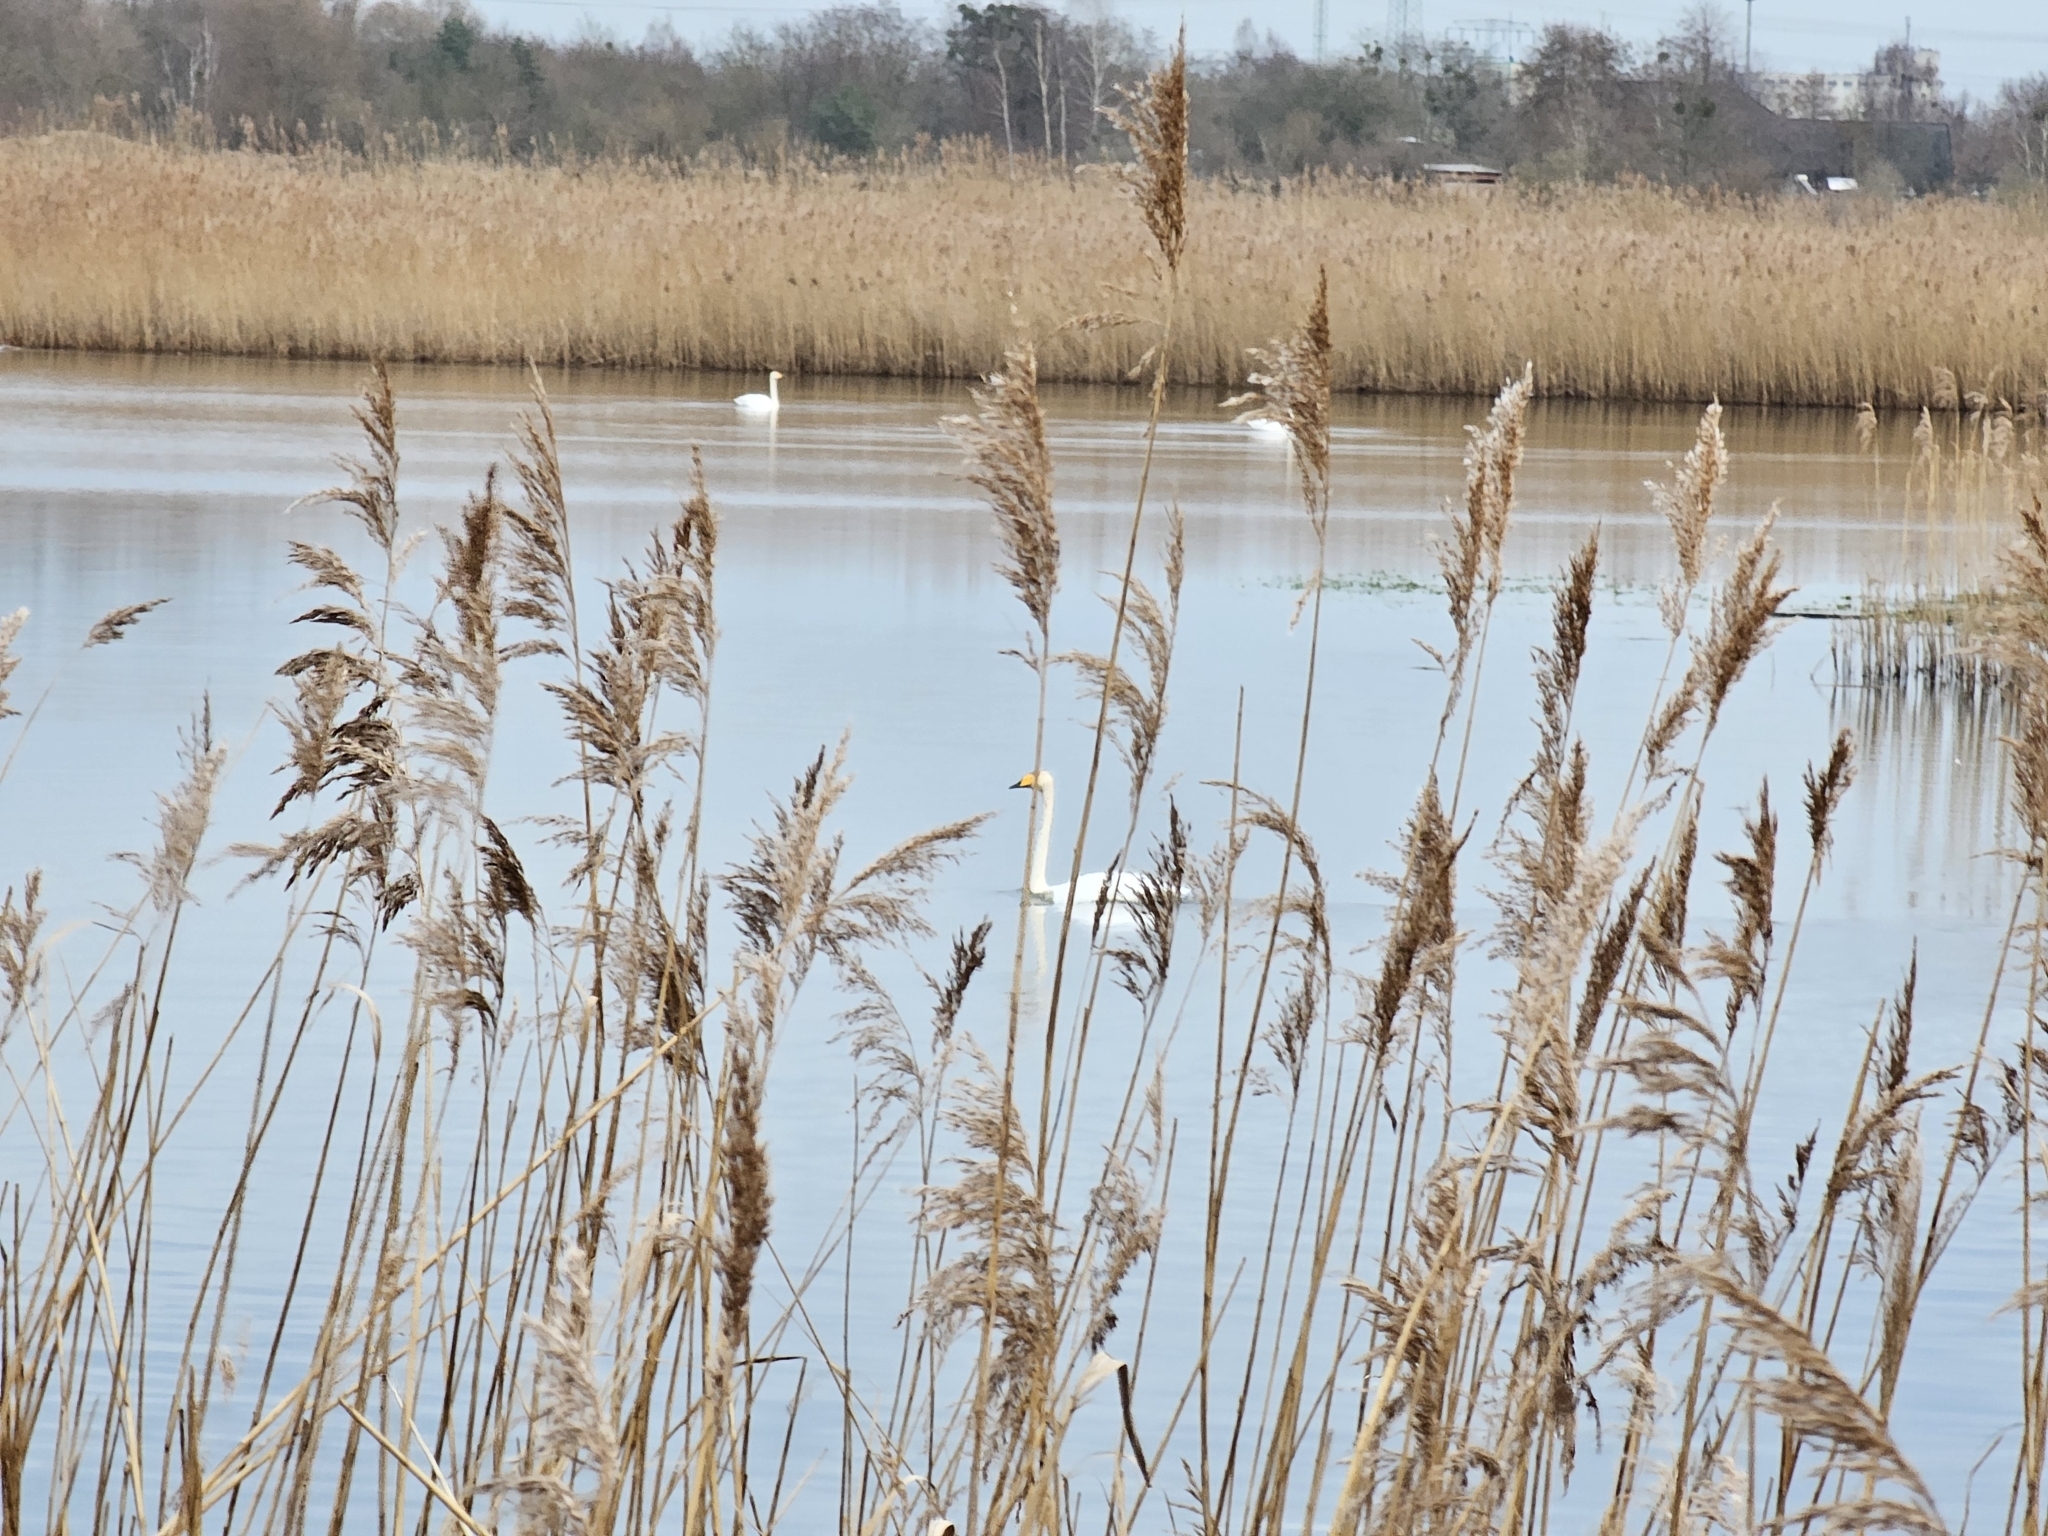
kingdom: Animalia
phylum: Chordata
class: Aves
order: Anseriformes
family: Anatidae
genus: Cygnus
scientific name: Cygnus cygnus
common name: Whooper swan
